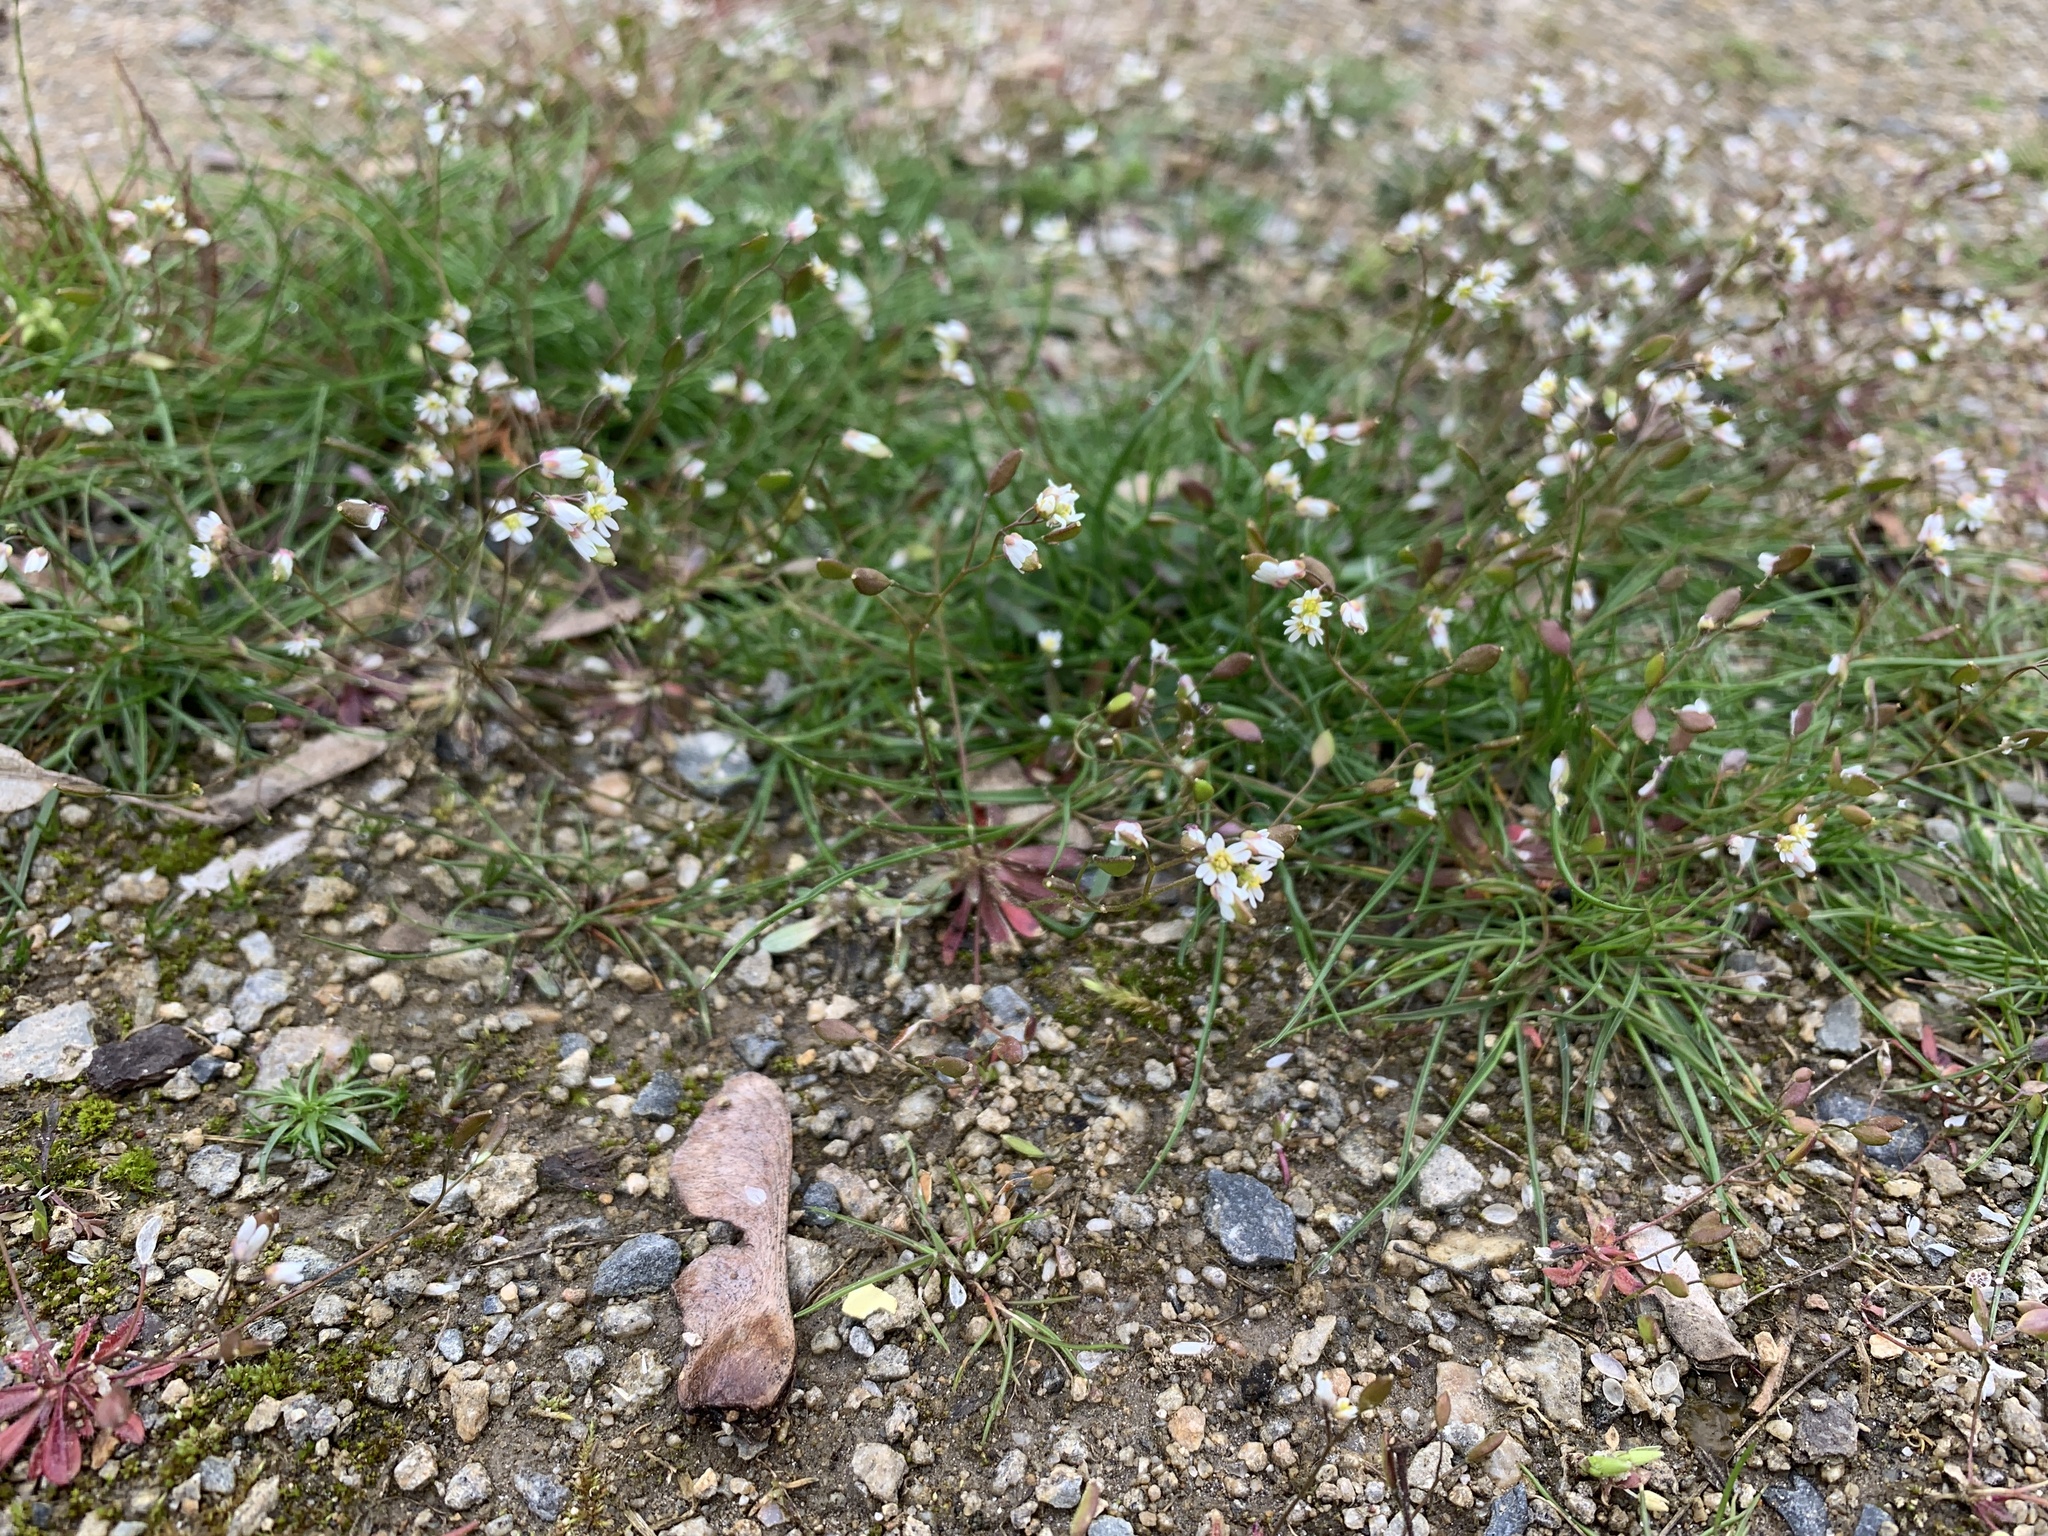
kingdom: Plantae
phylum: Tracheophyta
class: Magnoliopsida
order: Brassicales
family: Brassicaceae
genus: Draba
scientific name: Draba verna
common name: Spring draba
